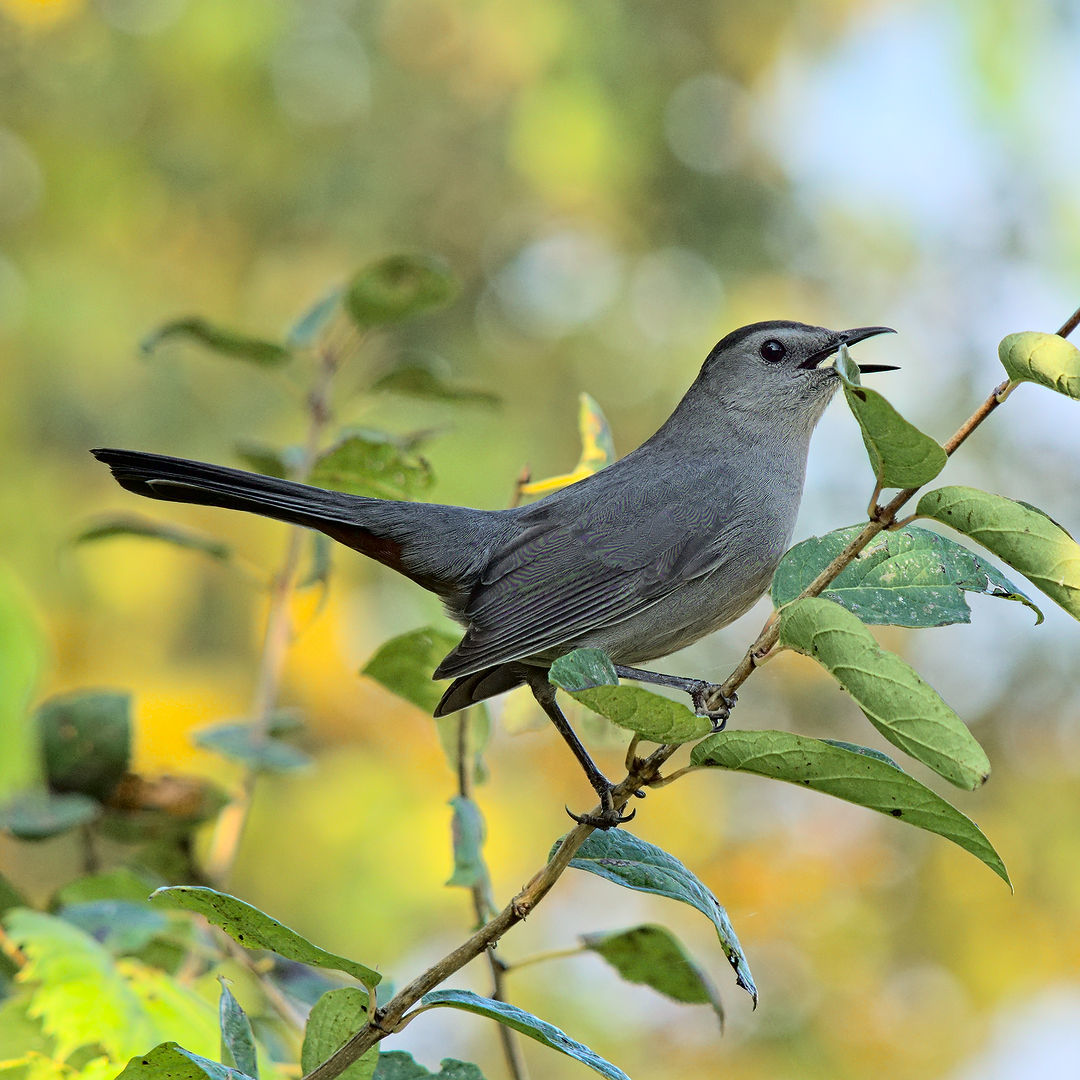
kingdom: Animalia
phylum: Chordata
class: Aves
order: Passeriformes
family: Mimidae
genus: Dumetella
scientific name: Dumetella carolinensis
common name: Gray catbird
